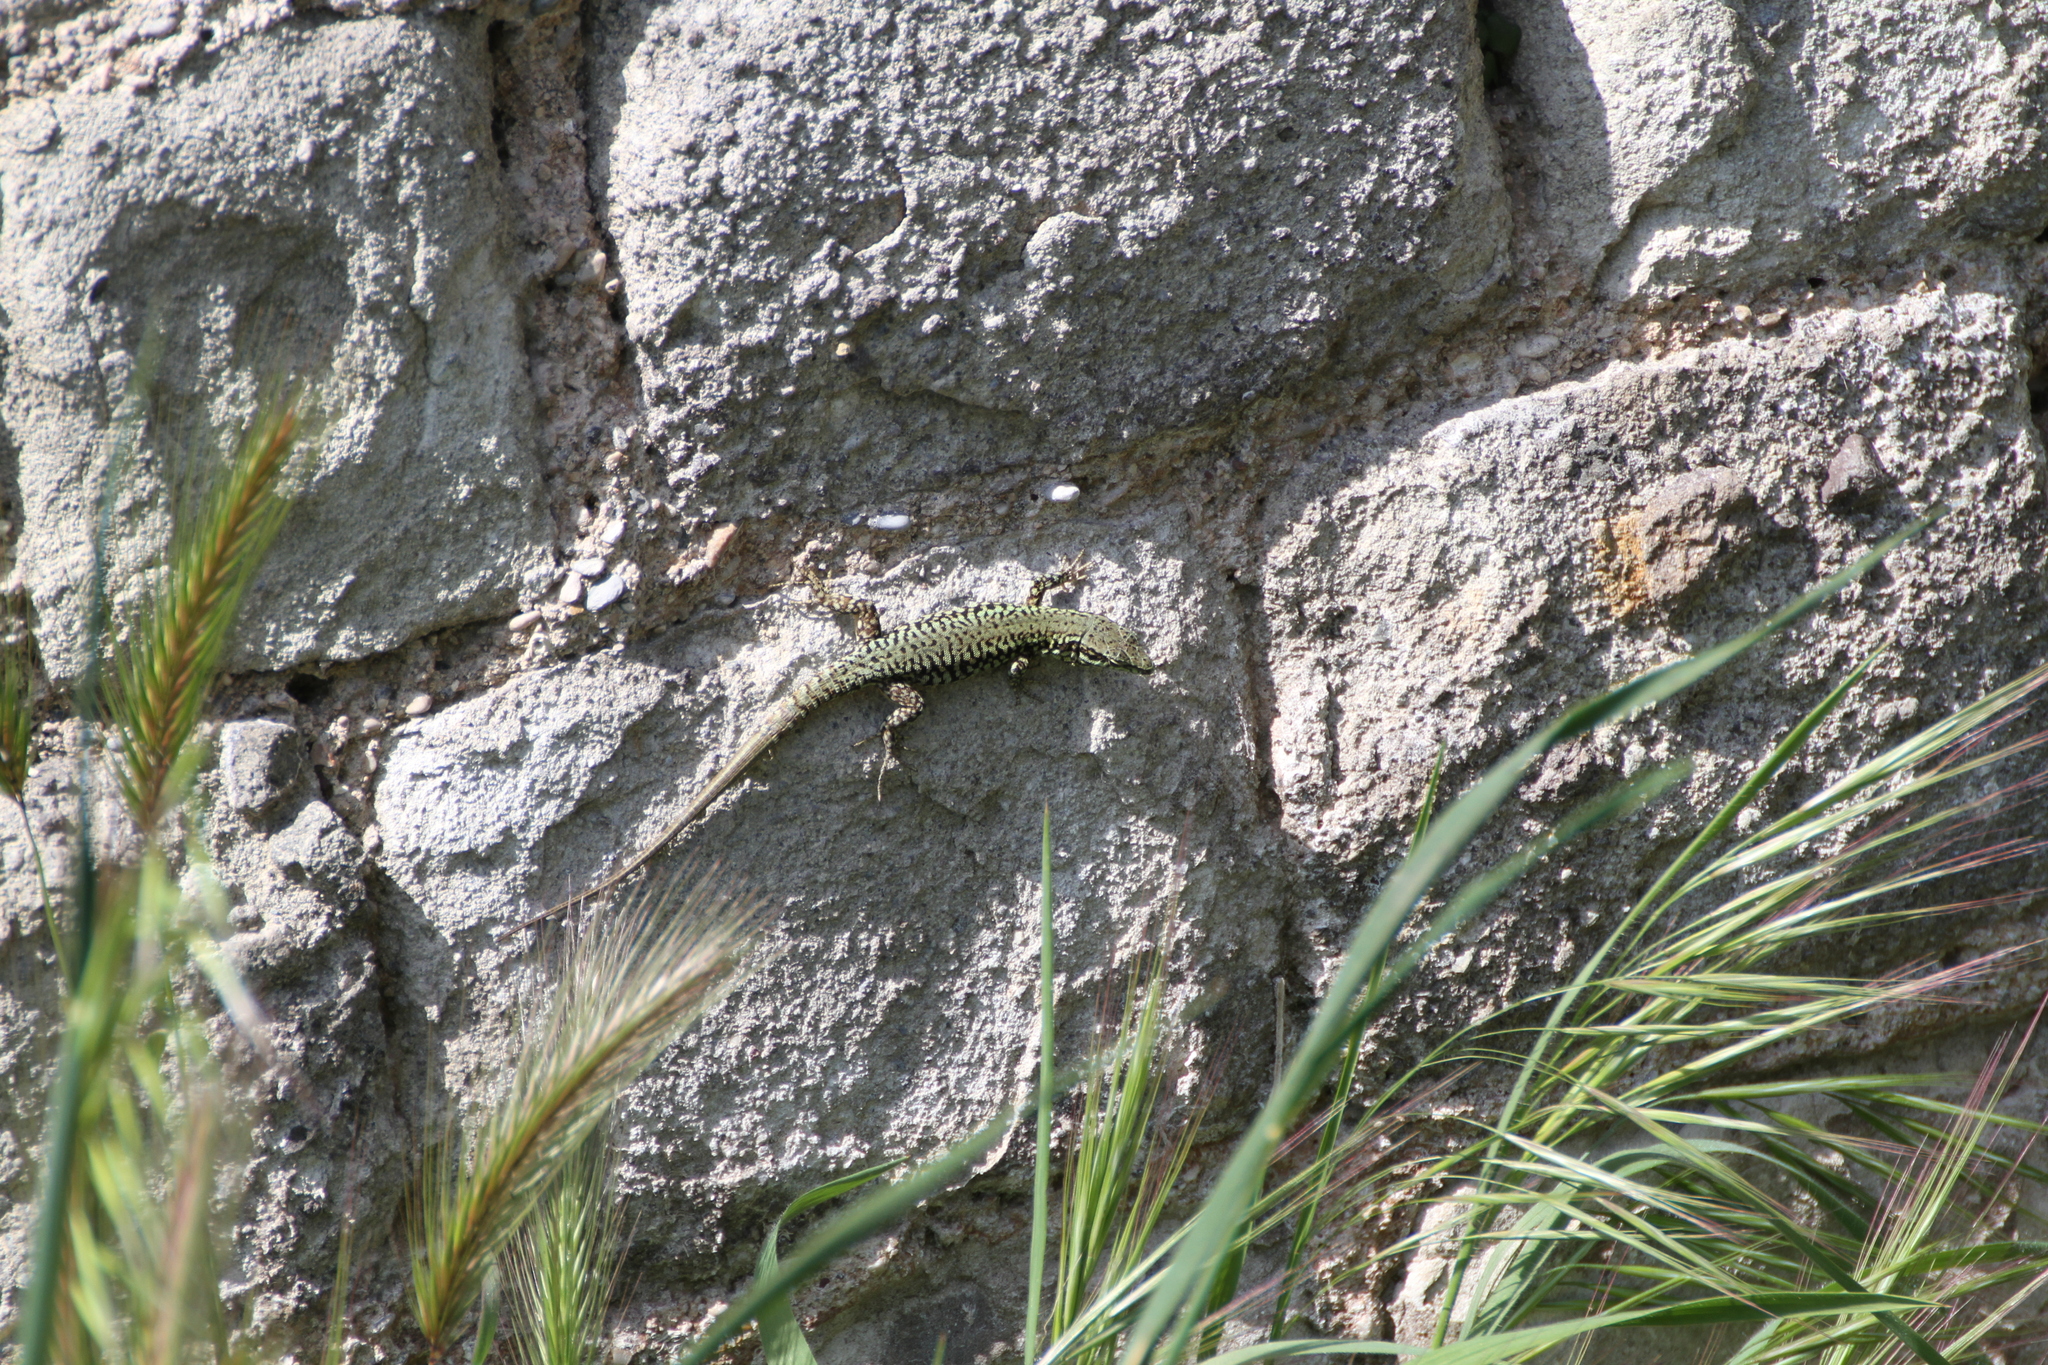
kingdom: Animalia
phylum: Chordata
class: Squamata
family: Lacertidae
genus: Podarcis
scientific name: Podarcis muralis
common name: Common wall lizard
